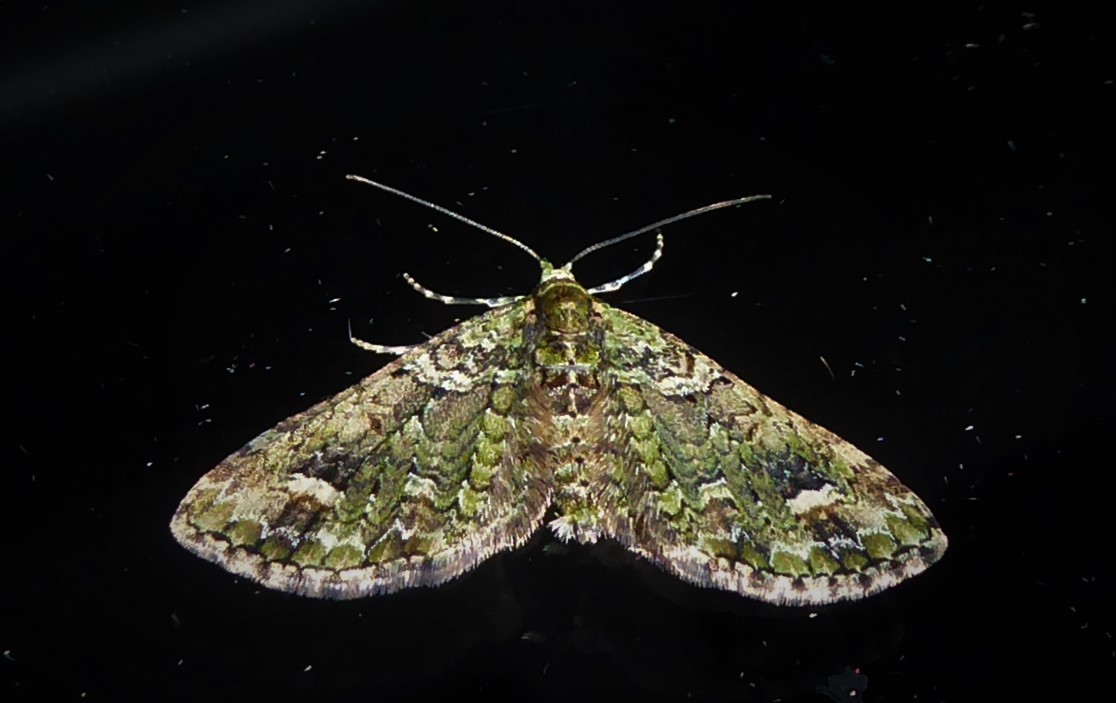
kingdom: Animalia
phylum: Arthropoda
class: Insecta
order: Lepidoptera
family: Geometridae
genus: Idaea
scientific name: Idaea mutanda
